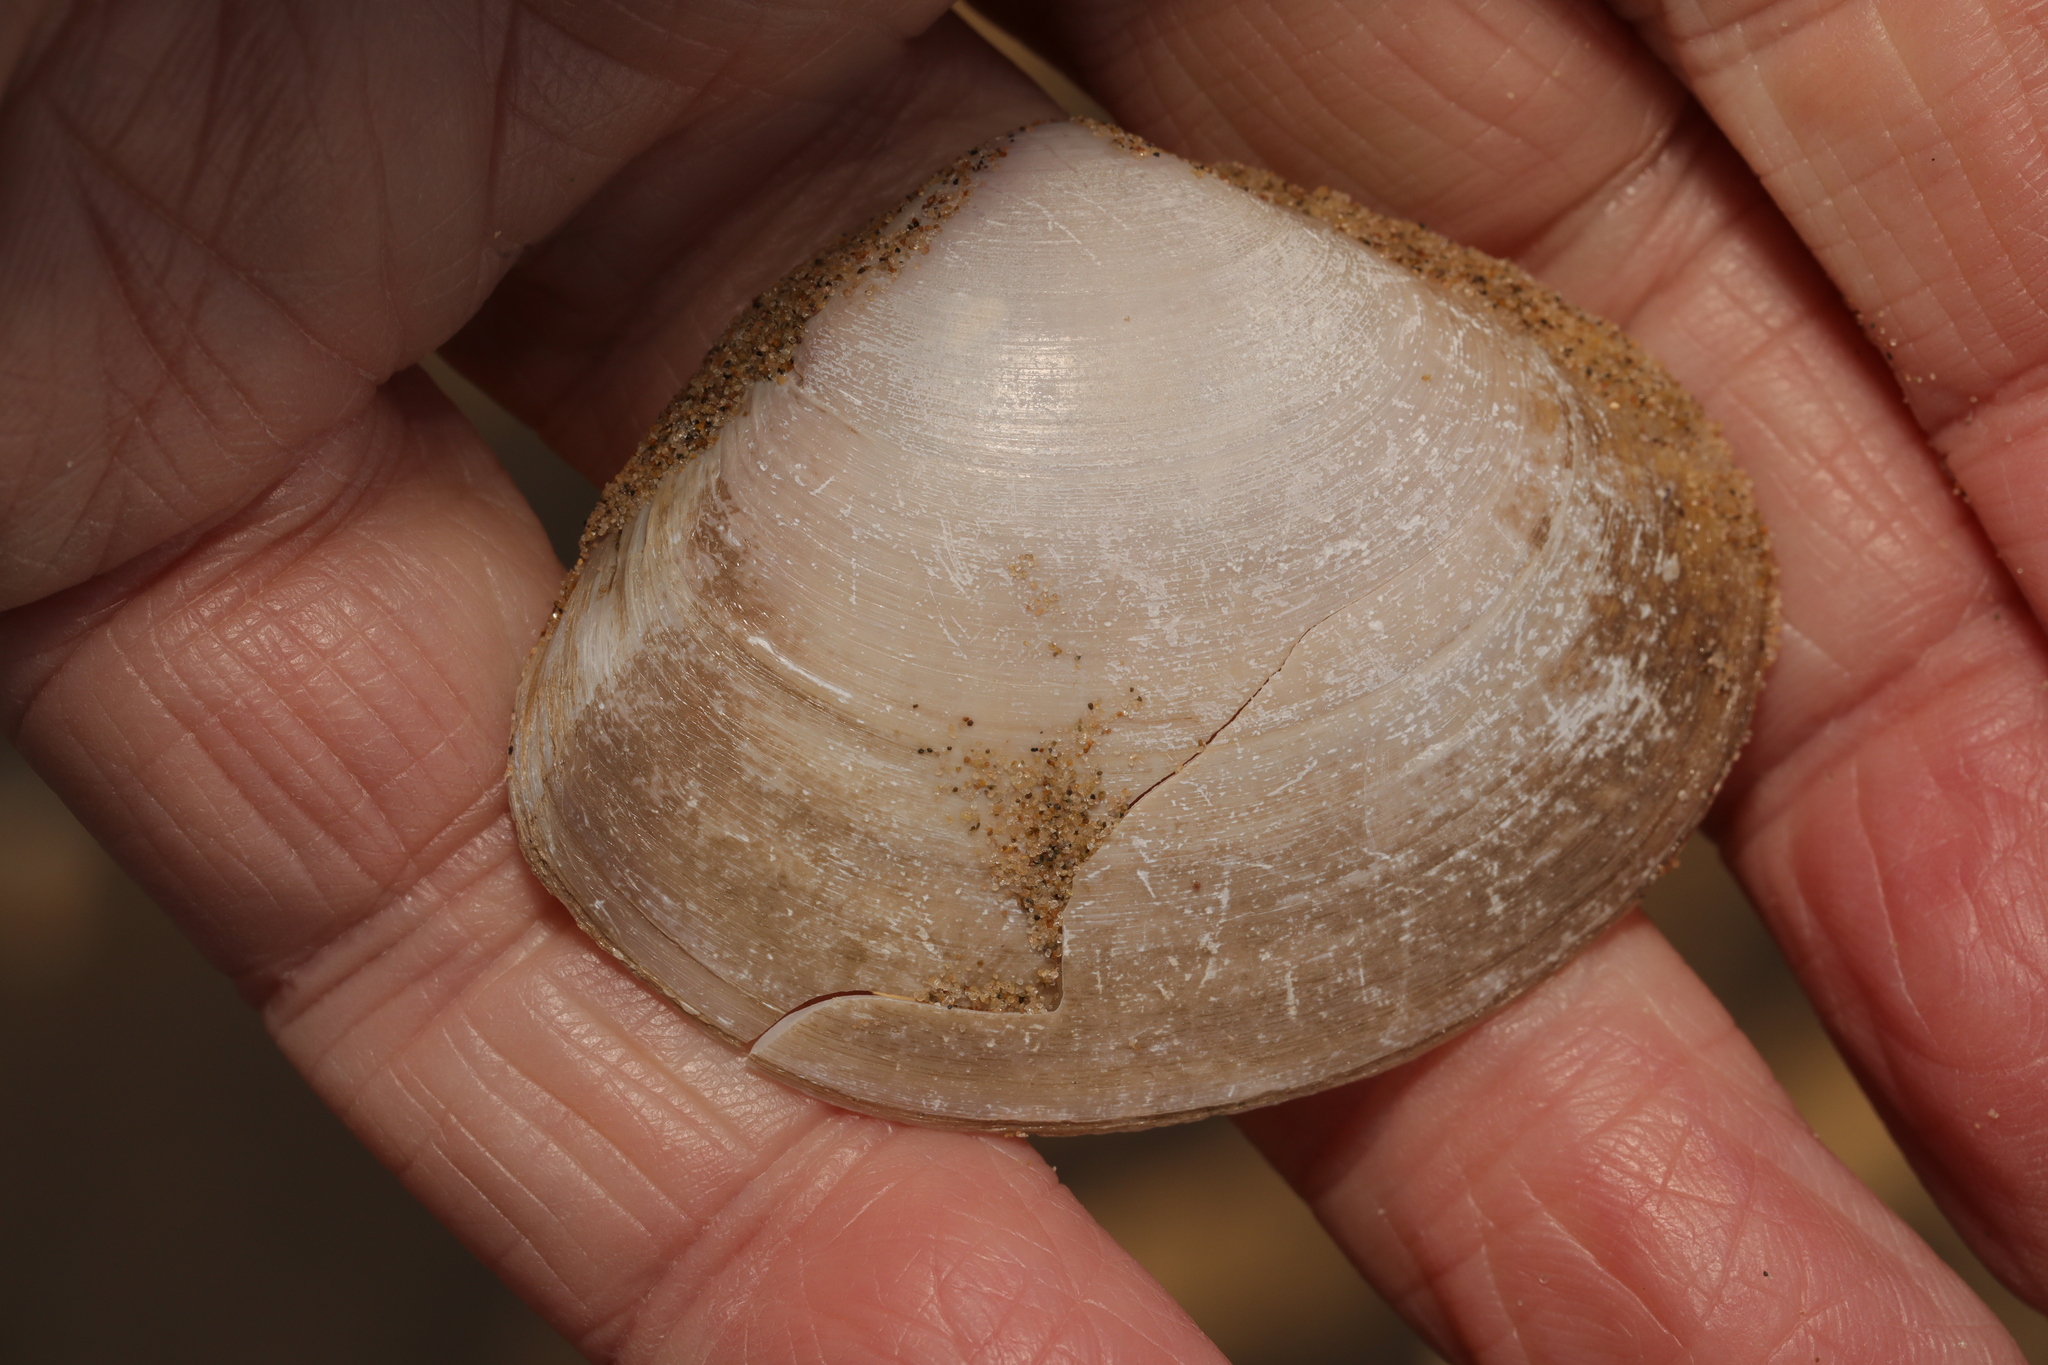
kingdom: Animalia
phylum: Mollusca
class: Bivalvia
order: Venerida
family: Mactridae
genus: Mactra
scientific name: Mactra stultorum
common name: Rayed trough shell
